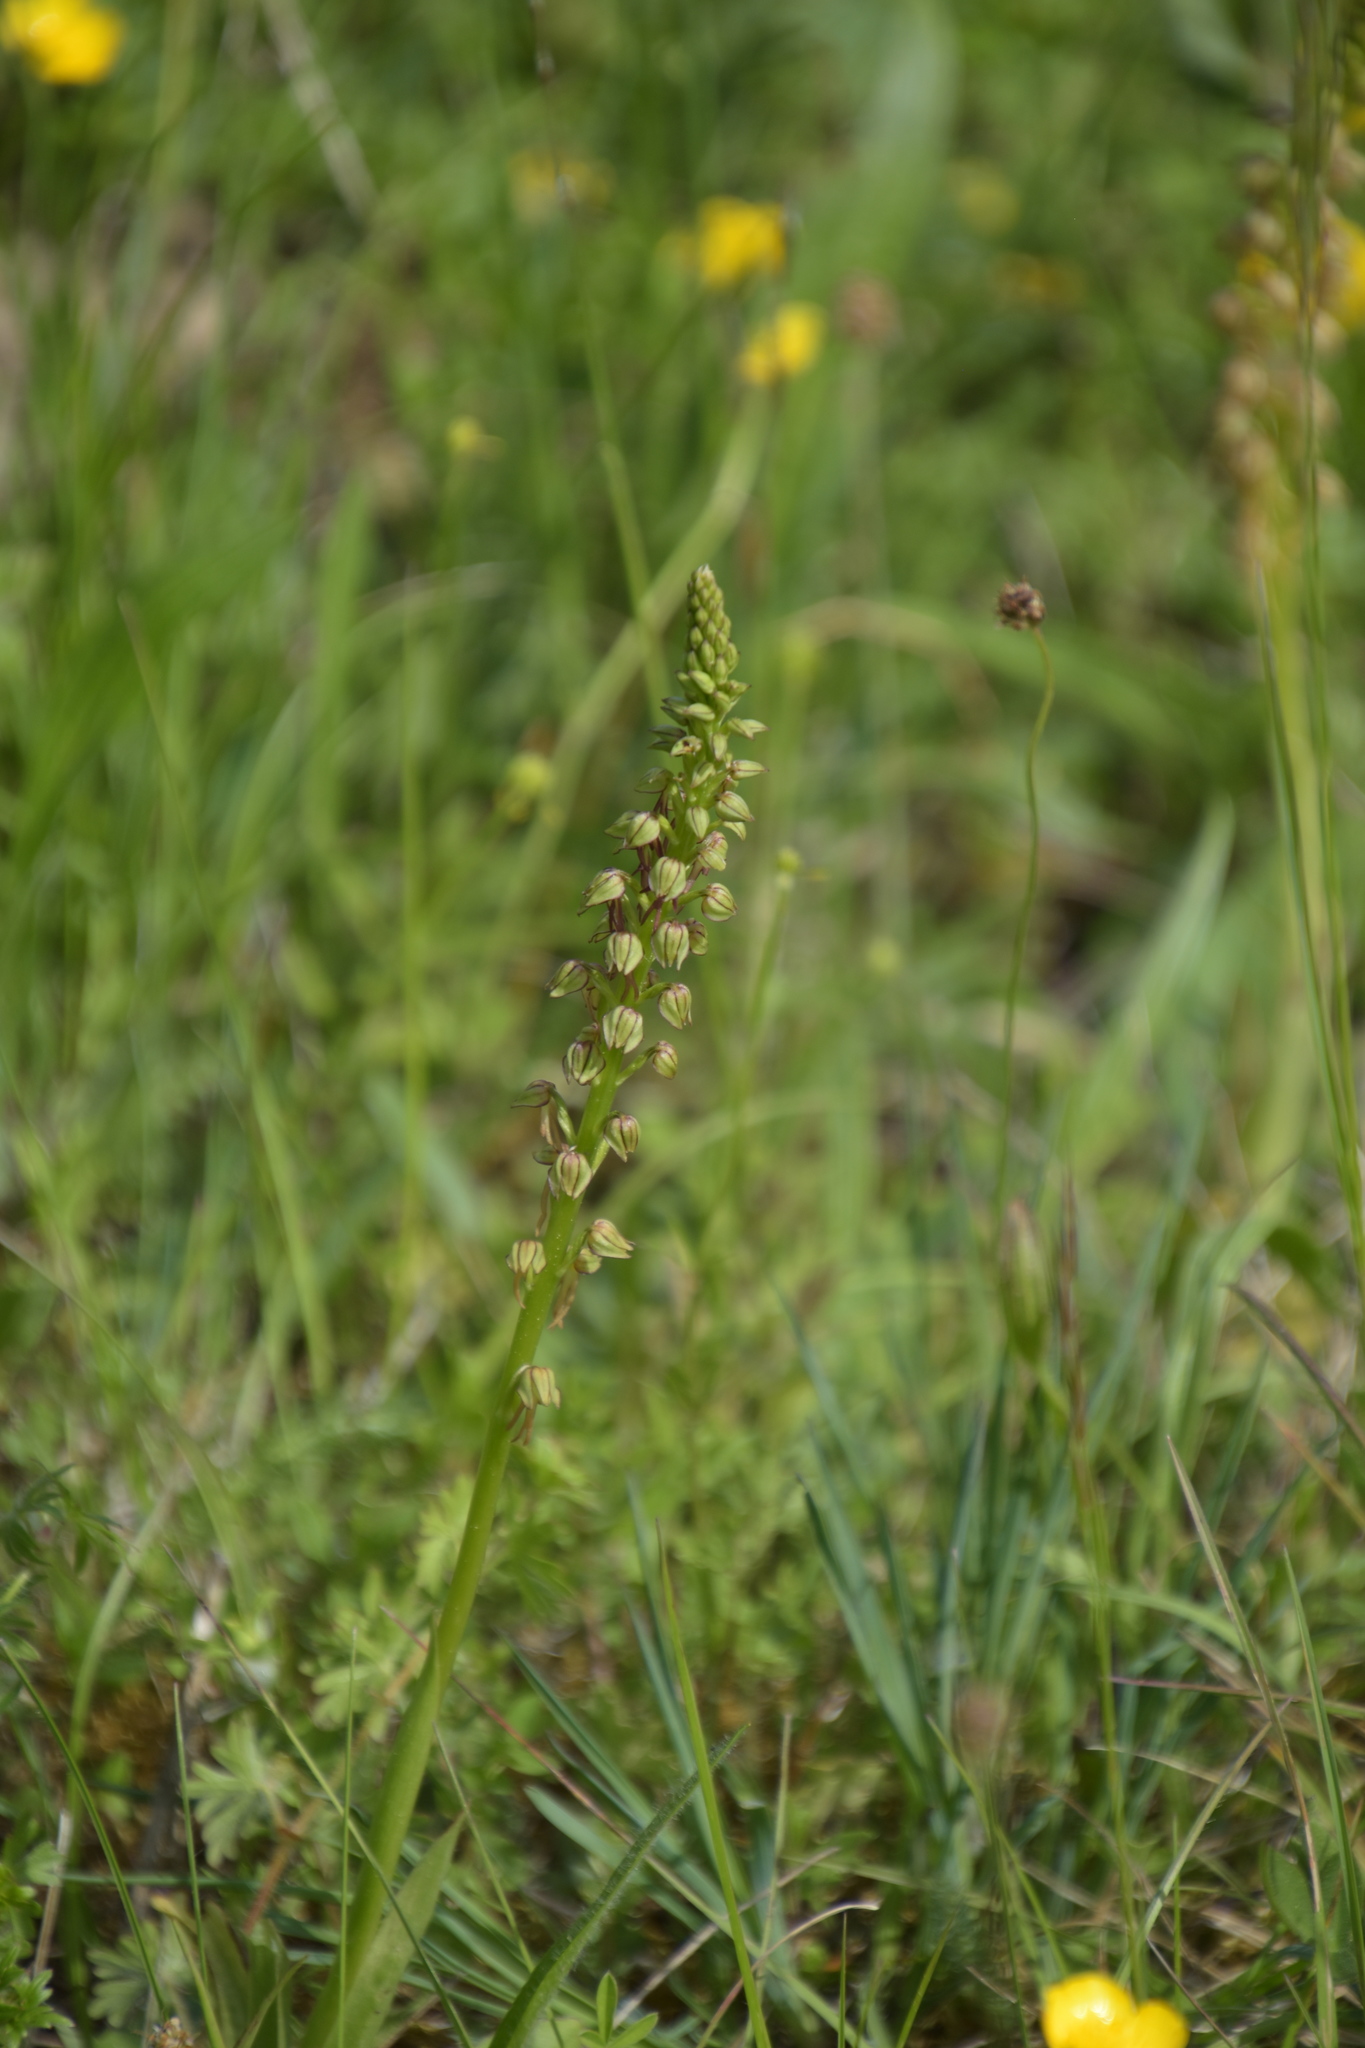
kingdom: Plantae
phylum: Tracheophyta
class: Liliopsida
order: Asparagales
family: Orchidaceae
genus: Orchis
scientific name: Orchis anthropophora
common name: Man orchid
